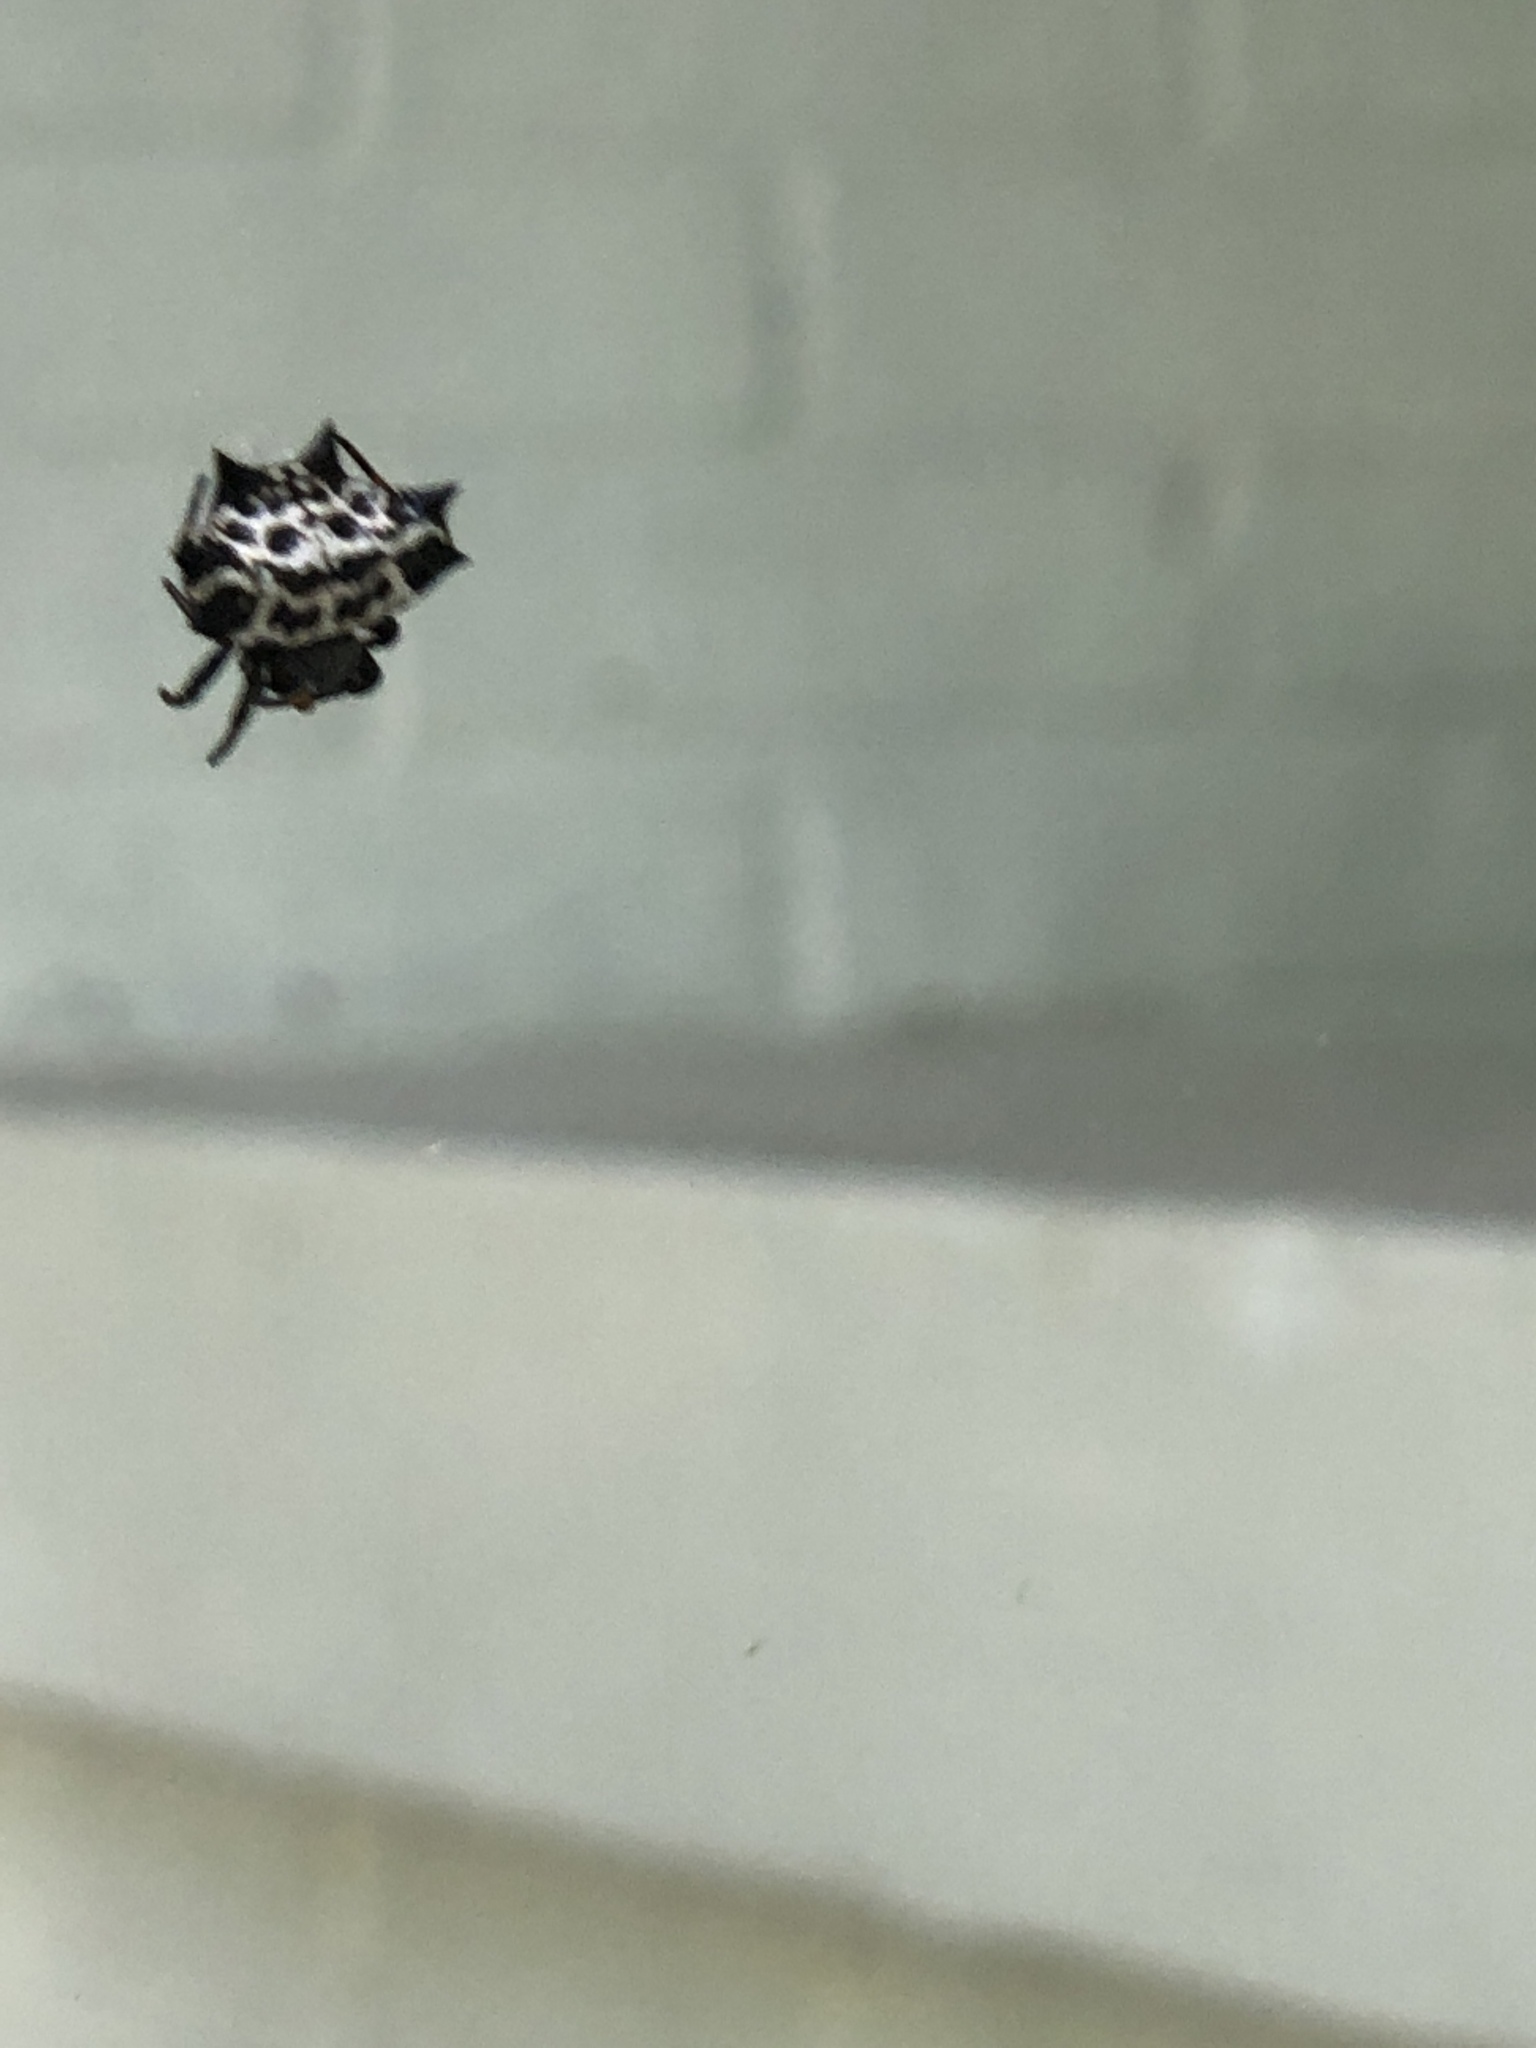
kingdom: Animalia
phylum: Arthropoda
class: Arachnida
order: Araneae
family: Araneidae
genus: Gasteracantha
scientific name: Gasteracantha cancriformis
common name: Orb weavers
